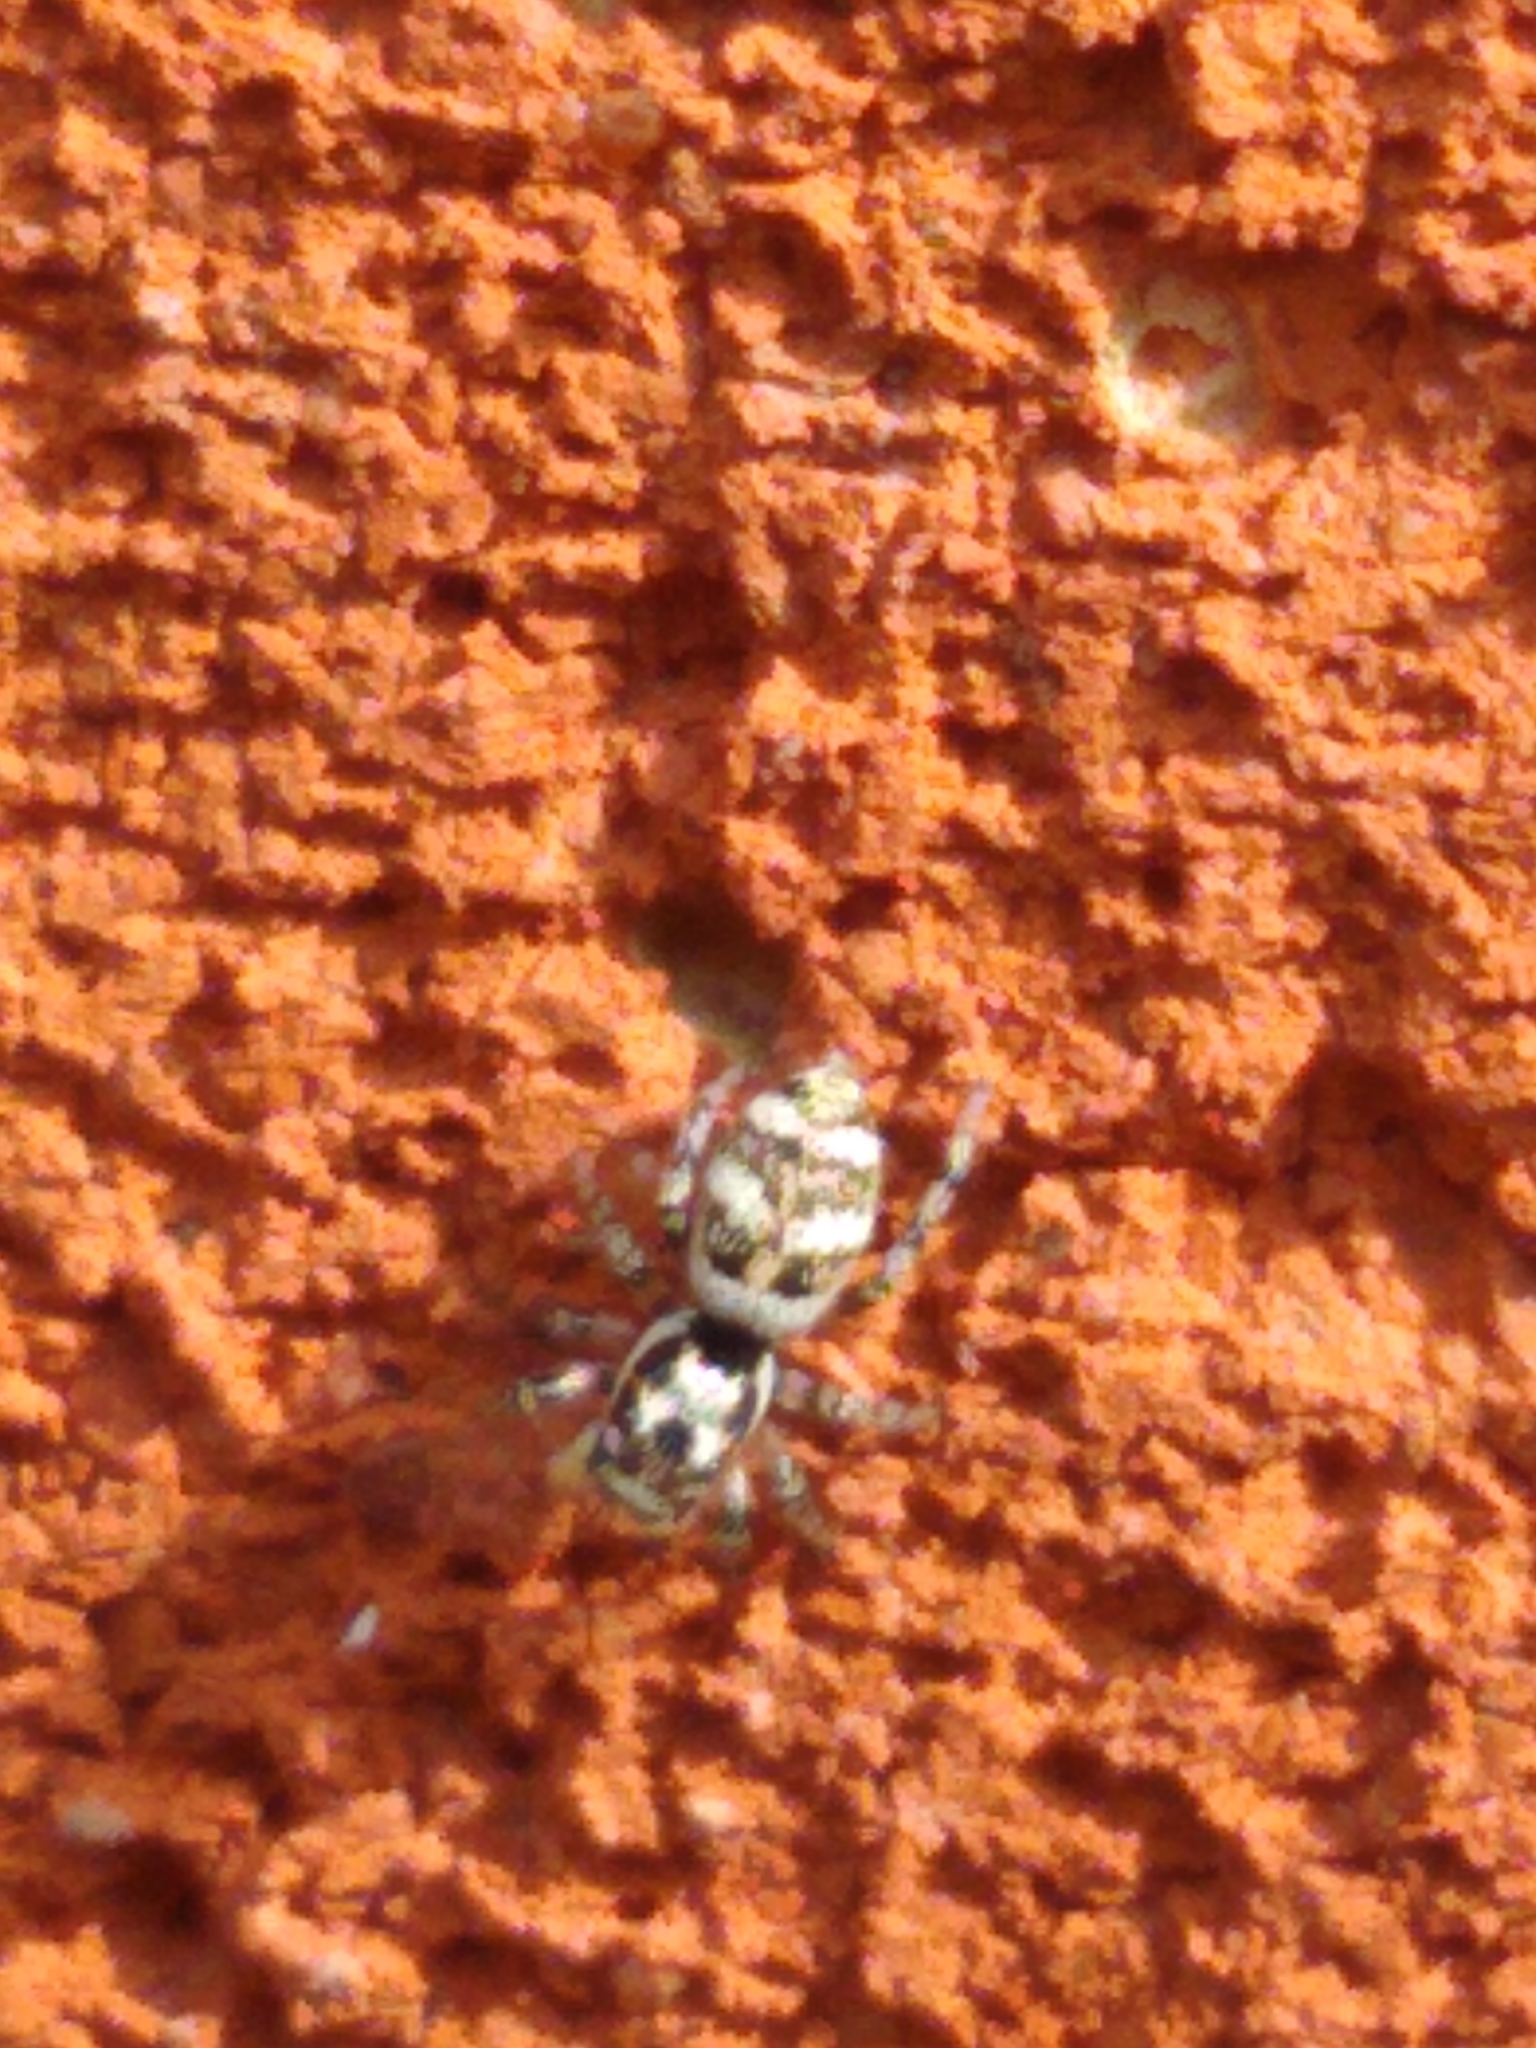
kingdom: Animalia
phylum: Arthropoda
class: Arachnida
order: Araneae
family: Salticidae
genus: Salticus
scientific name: Salticus scenicus
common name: Zebra jumper
